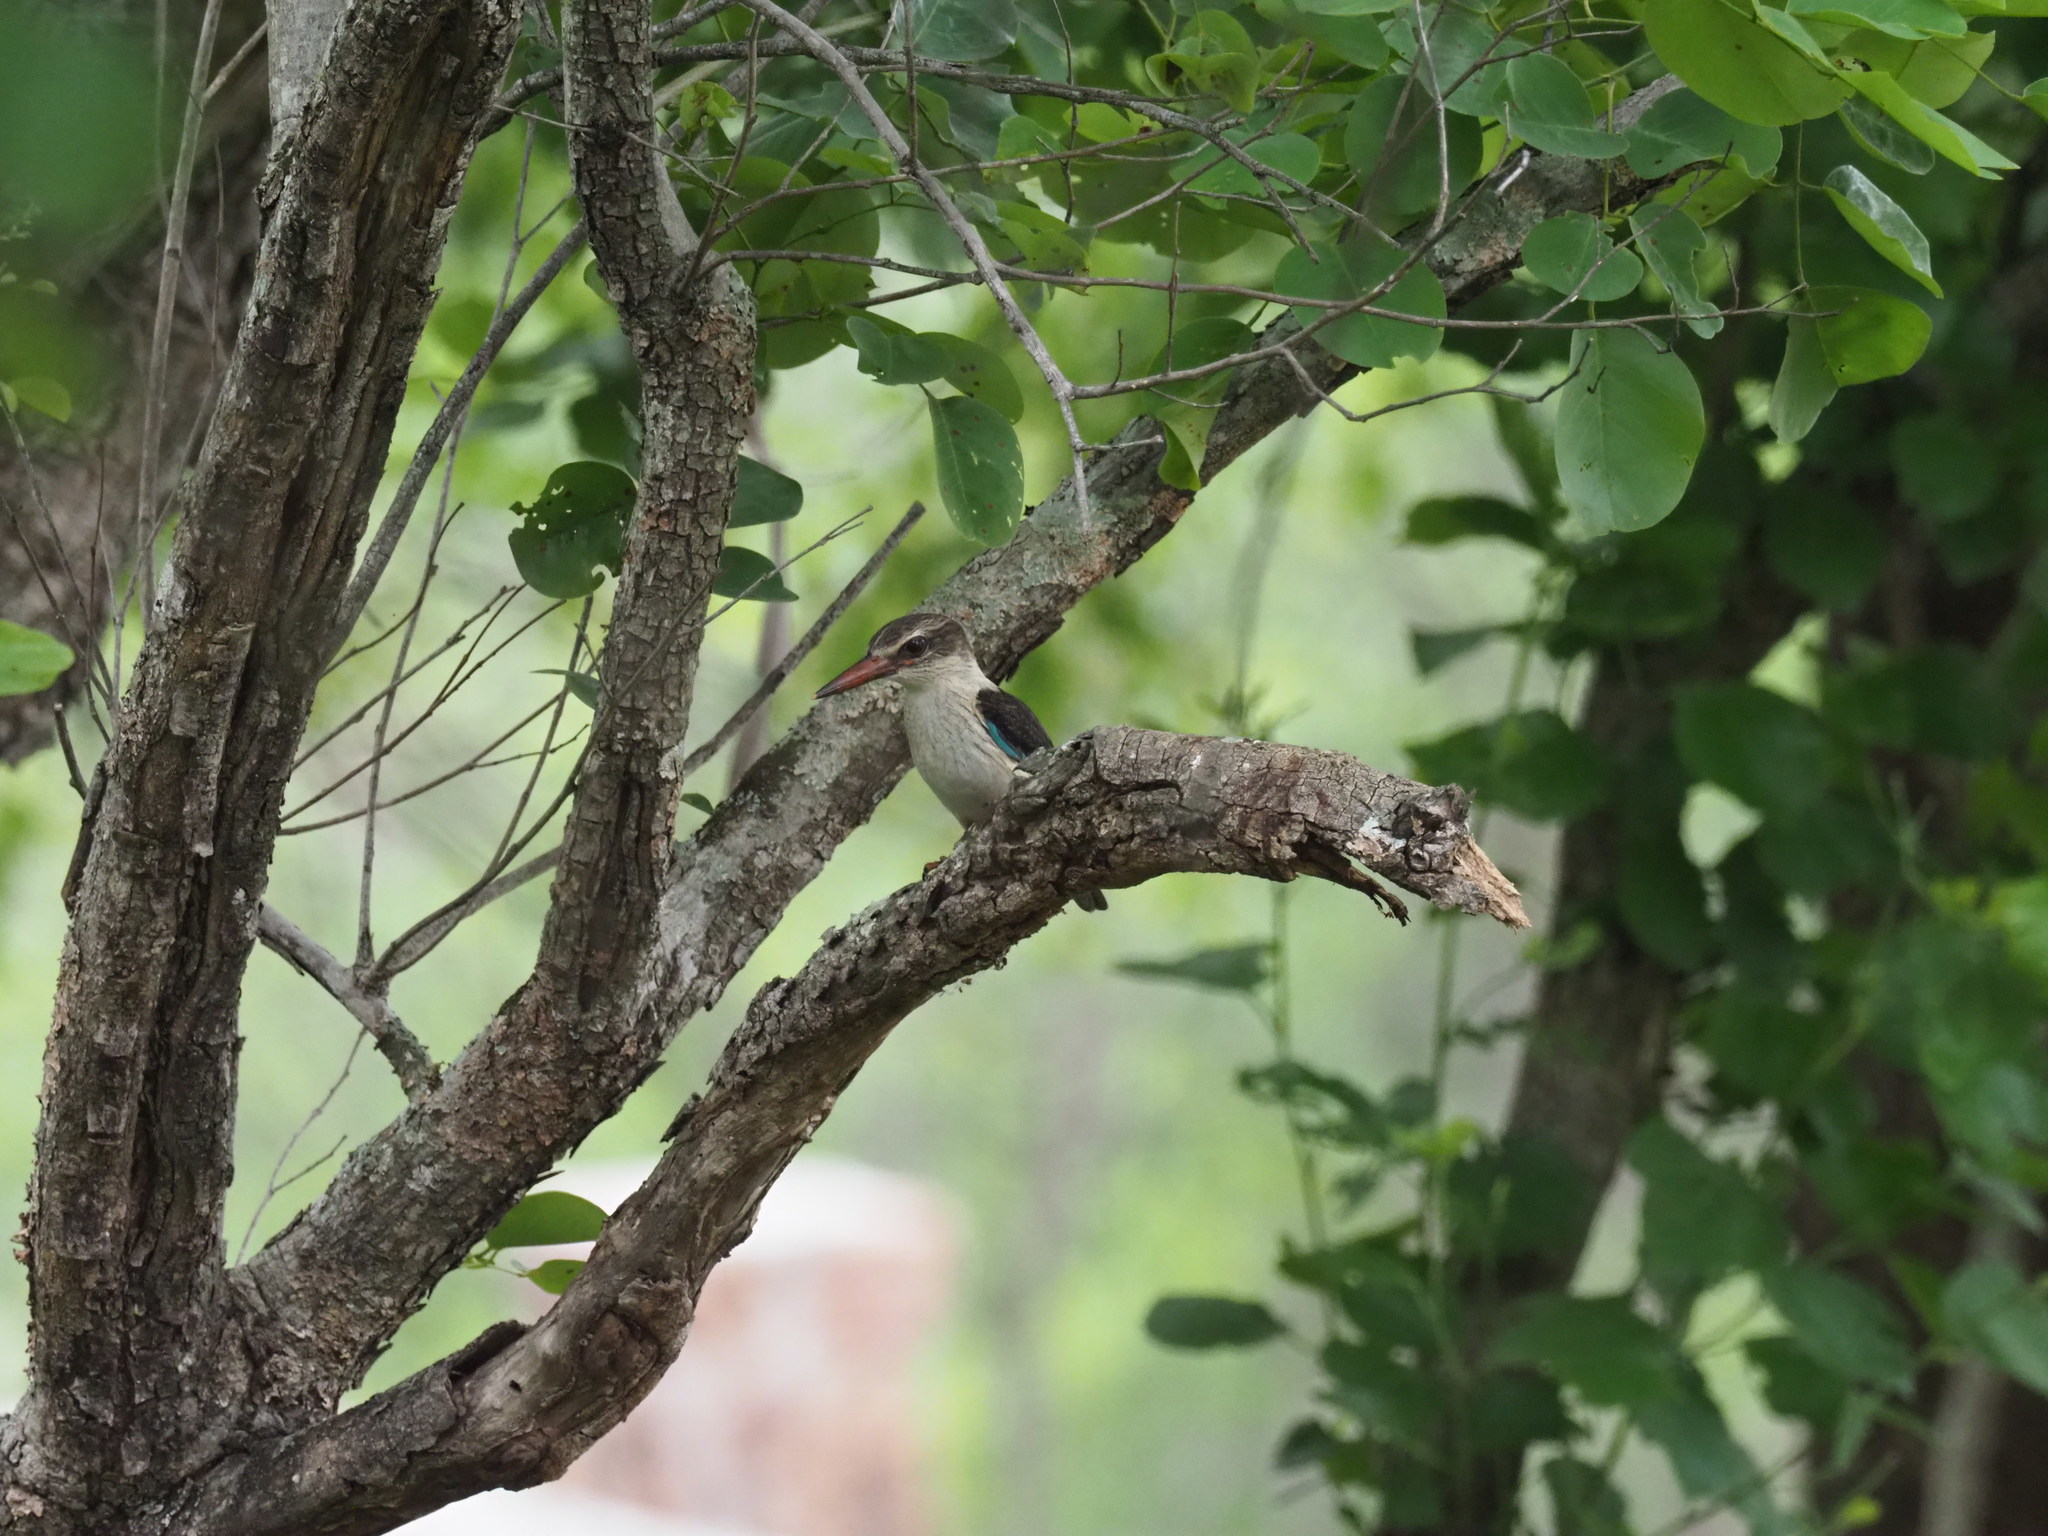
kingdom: Animalia
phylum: Chordata
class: Aves
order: Coraciiformes
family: Alcedinidae
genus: Halcyon
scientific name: Halcyon albiventris
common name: Brown-hooded kingfisher
